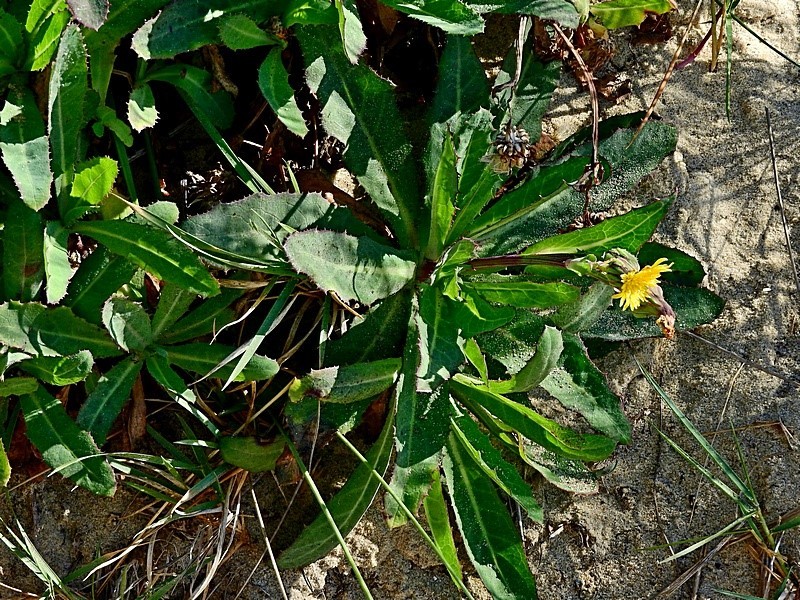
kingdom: Plantae
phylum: Tracheophyta
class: Magnoliopsida
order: Asterales
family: Asteraceae
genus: Sonchus
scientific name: Sonchus megalocarpus
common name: Dune thistle
